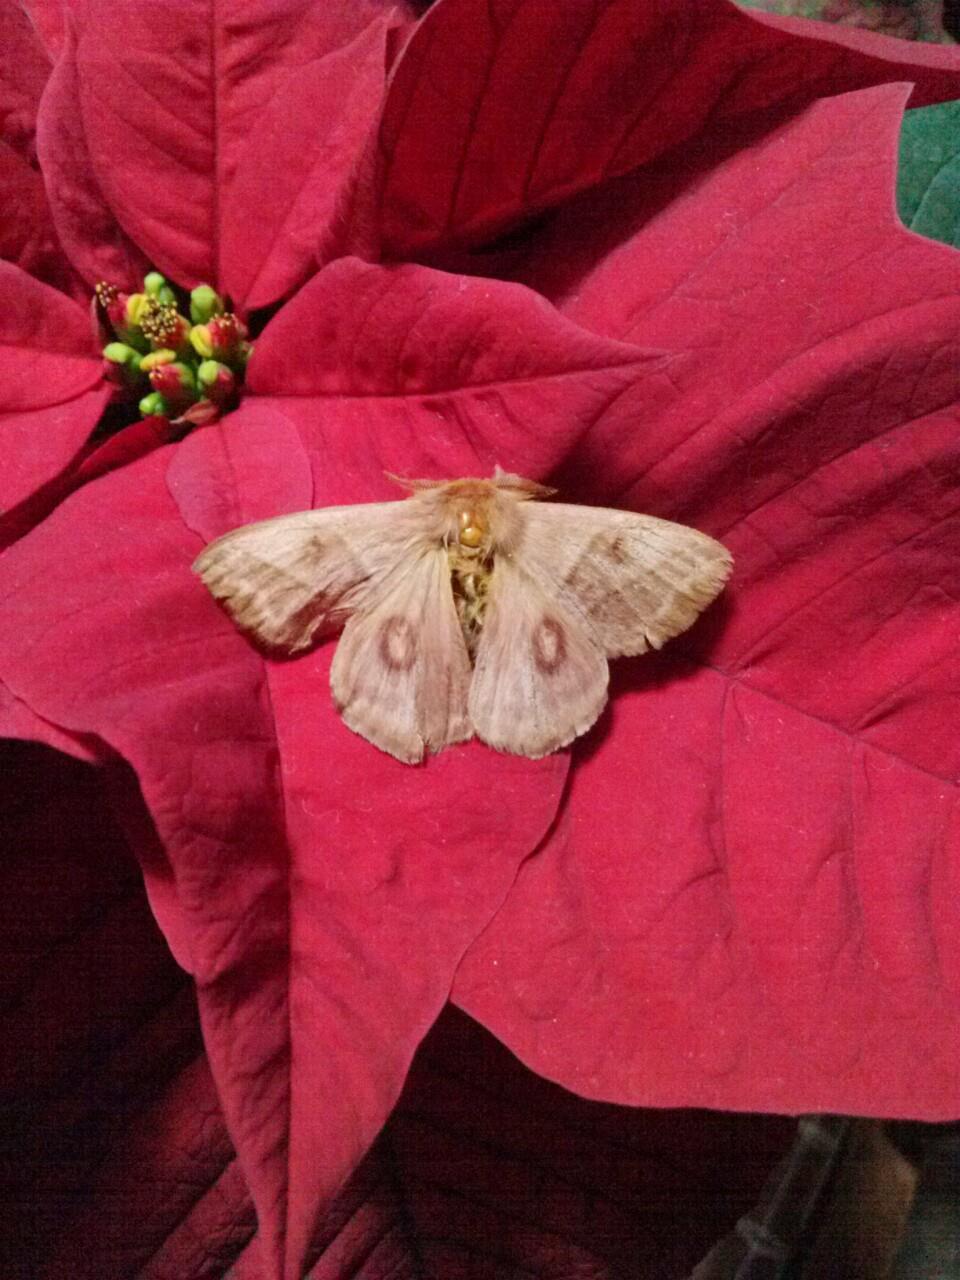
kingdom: Animalia
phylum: Arthropoda
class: Insecta
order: Lepidoptera
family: Saturniidae
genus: Hylesia
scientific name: Hylesia iola
